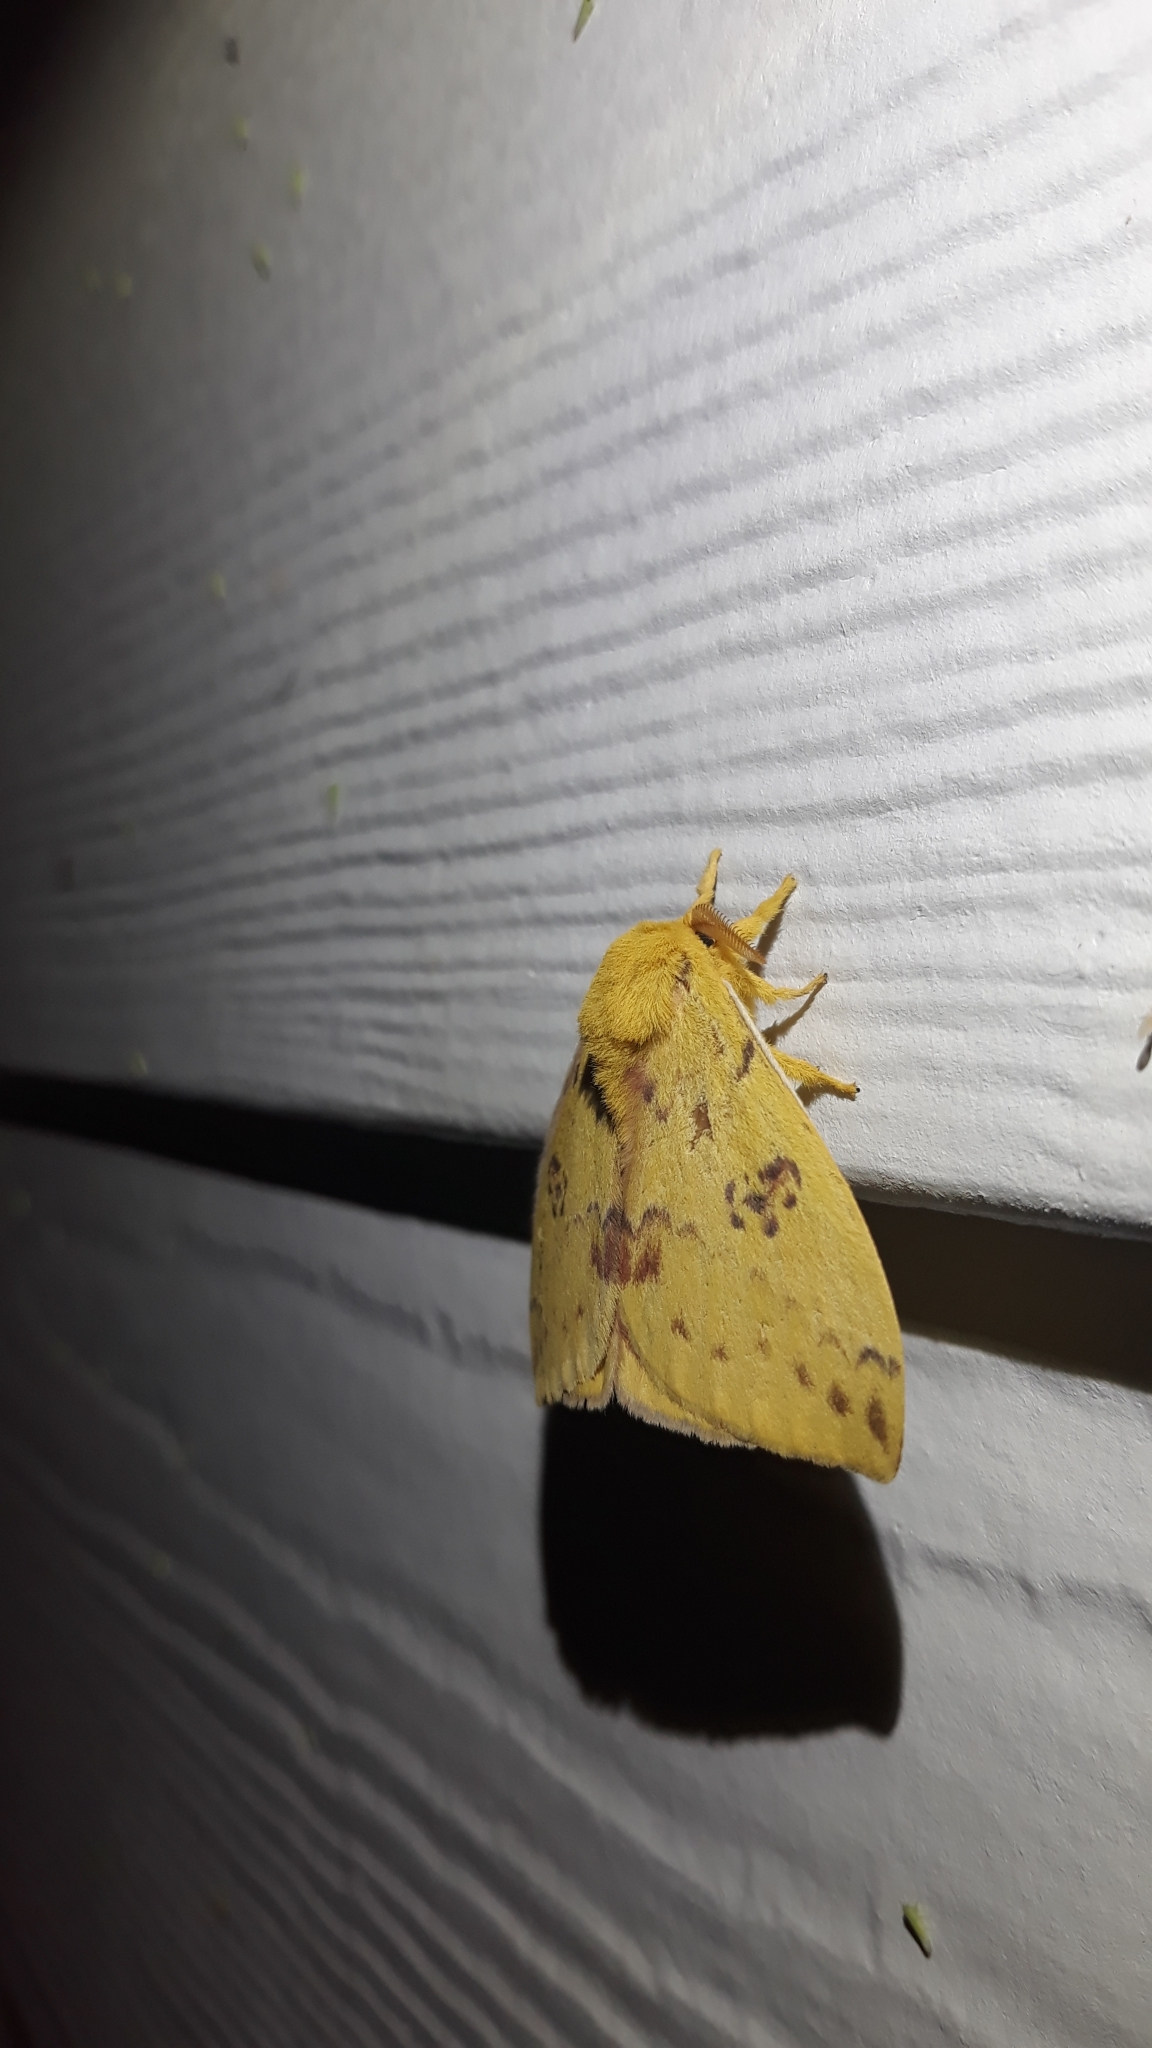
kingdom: Animalia
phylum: Arthropoda
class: Insecta
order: Lepidoptera
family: Saturniidae
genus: Automeris
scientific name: Automeris io
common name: Io moth
